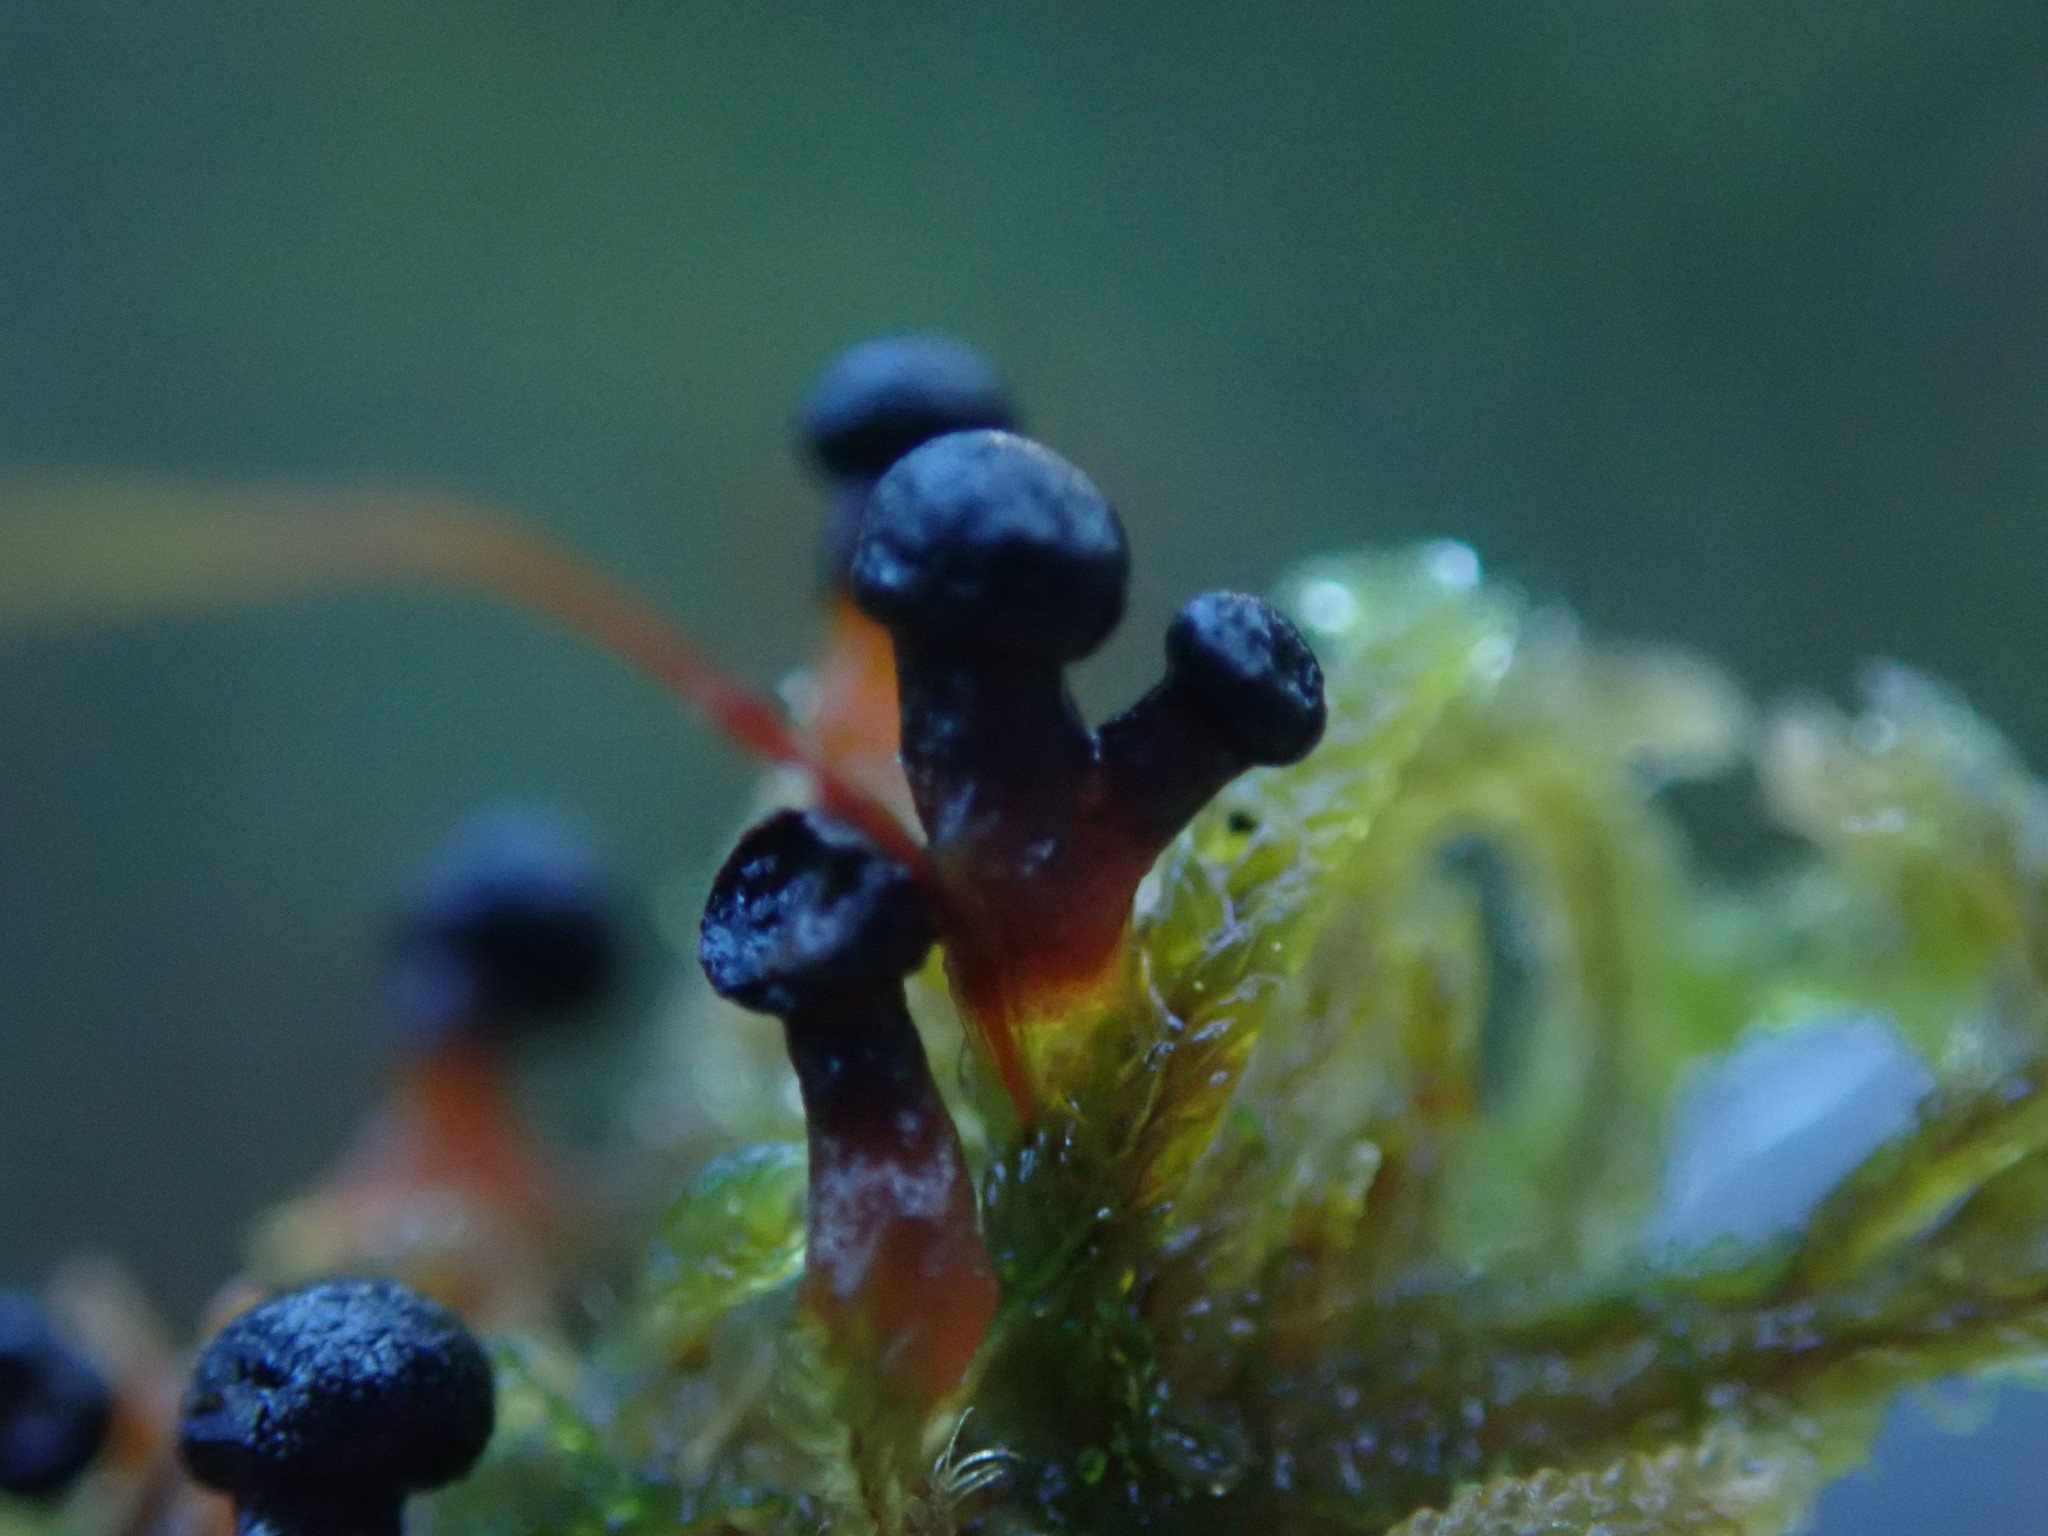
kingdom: Protozoa
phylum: Mycetozoa
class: Myxomycetes
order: Physarales
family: Didymiaceae
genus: Lepidoderma
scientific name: Lepidoderma tigrinum
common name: Lepidoderma crassipes
